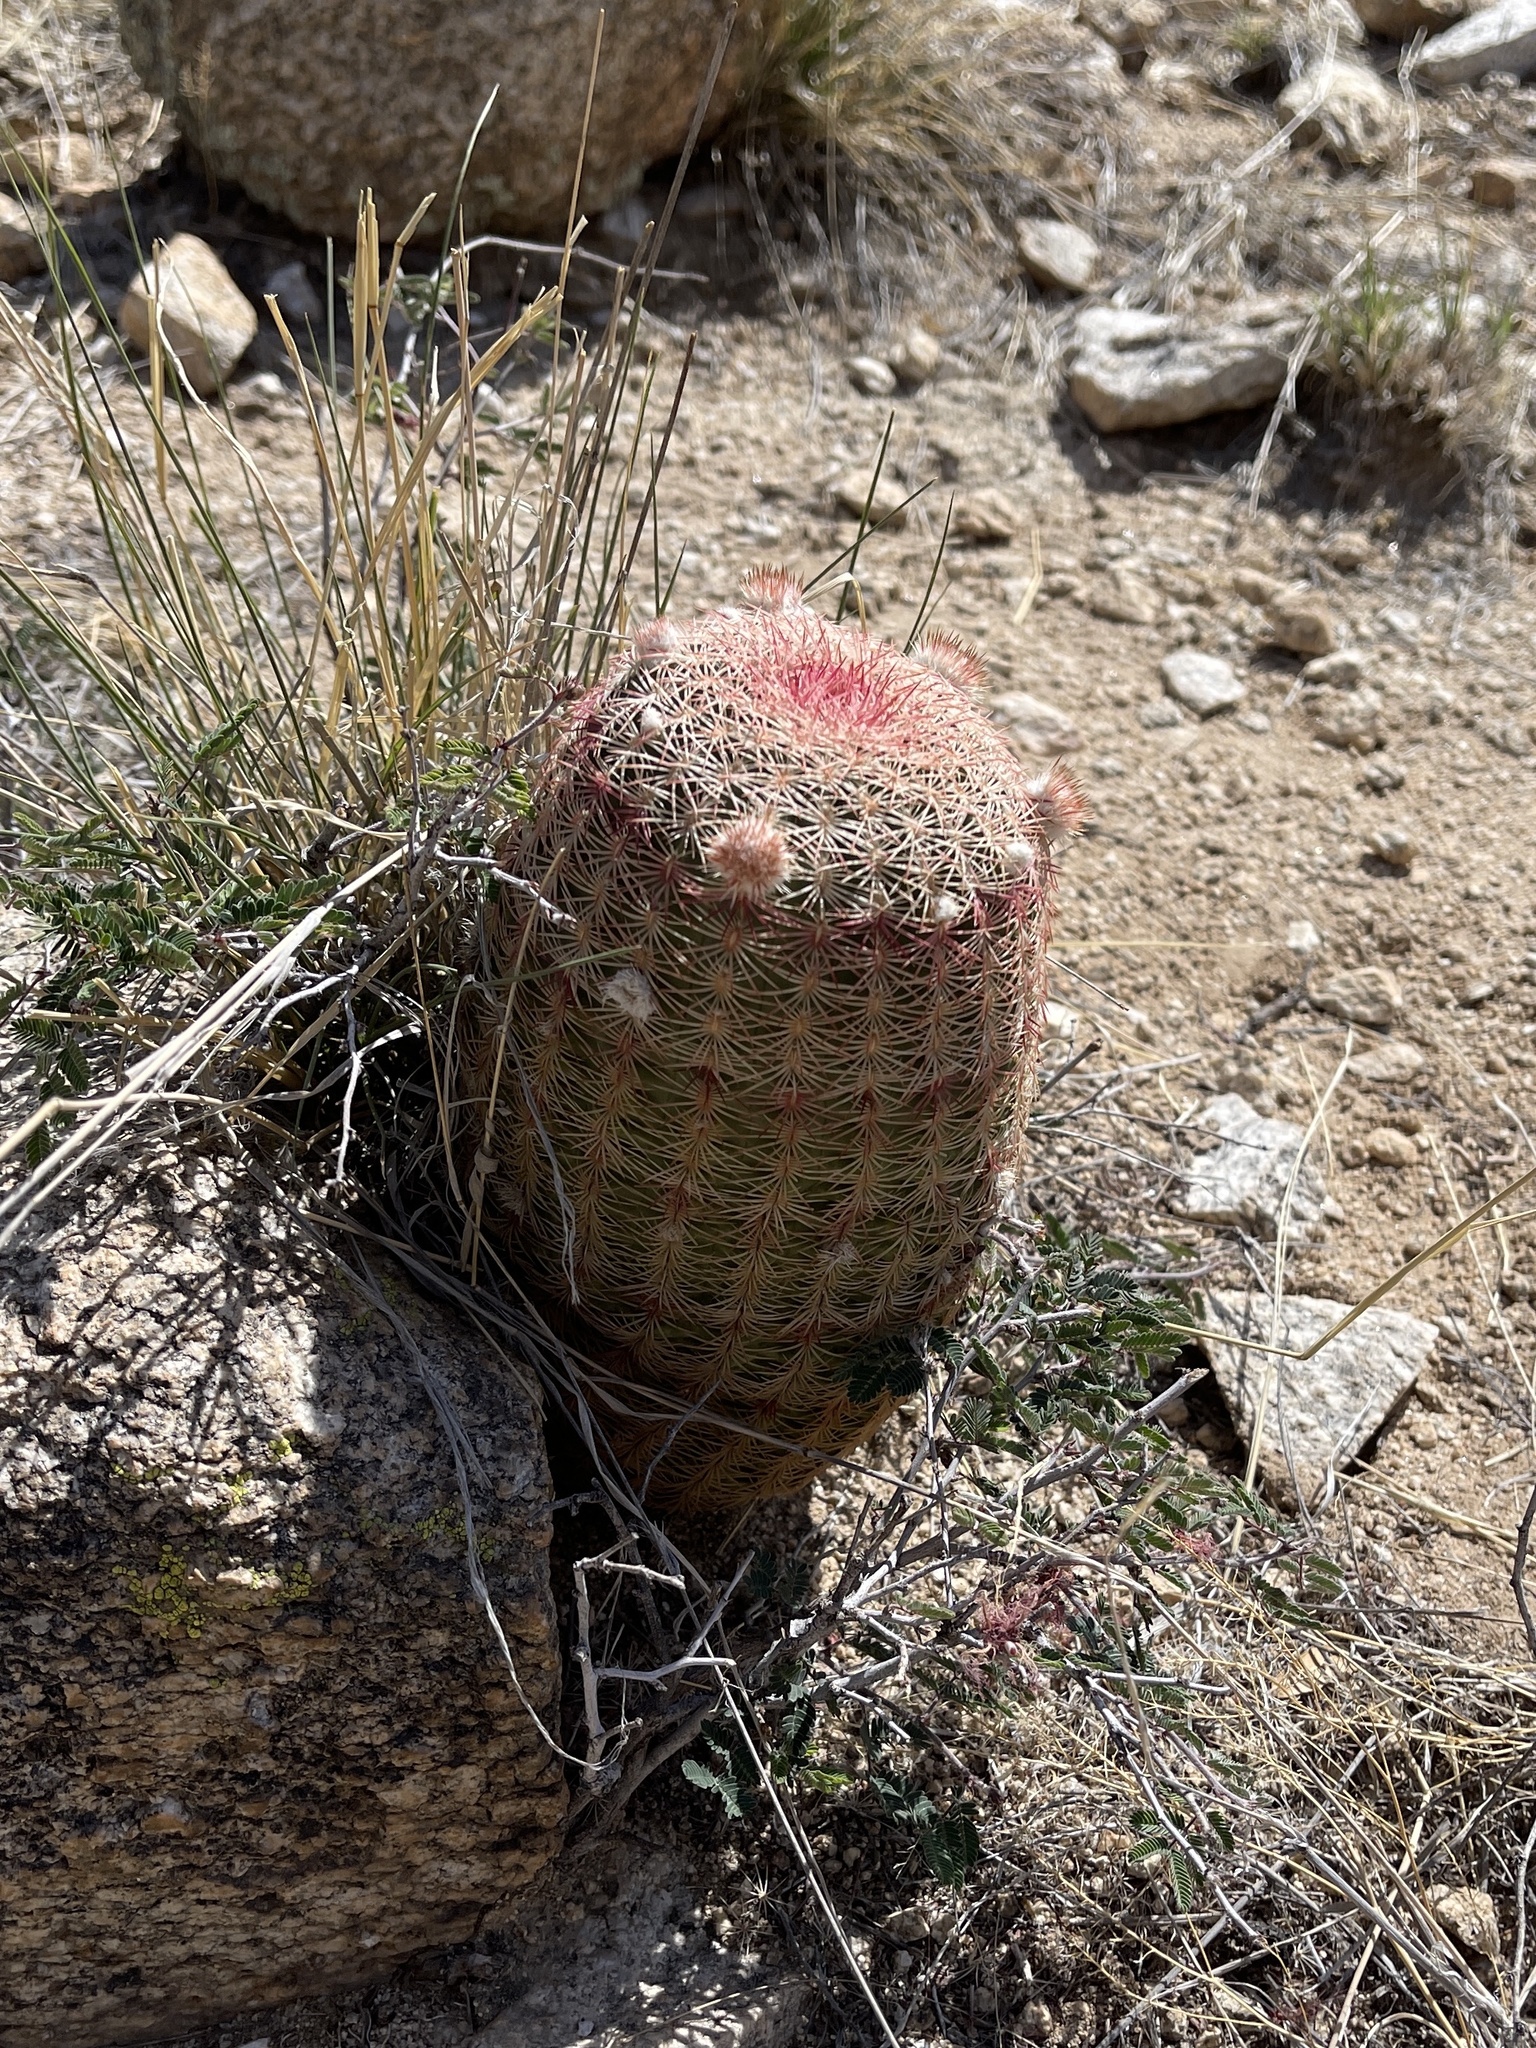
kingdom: Plantae
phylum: Tracheophyta
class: Magnoliopsida
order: Caryophyllales
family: Cactaceae
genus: Echinocereus
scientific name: Echinocereus rigidissimus
